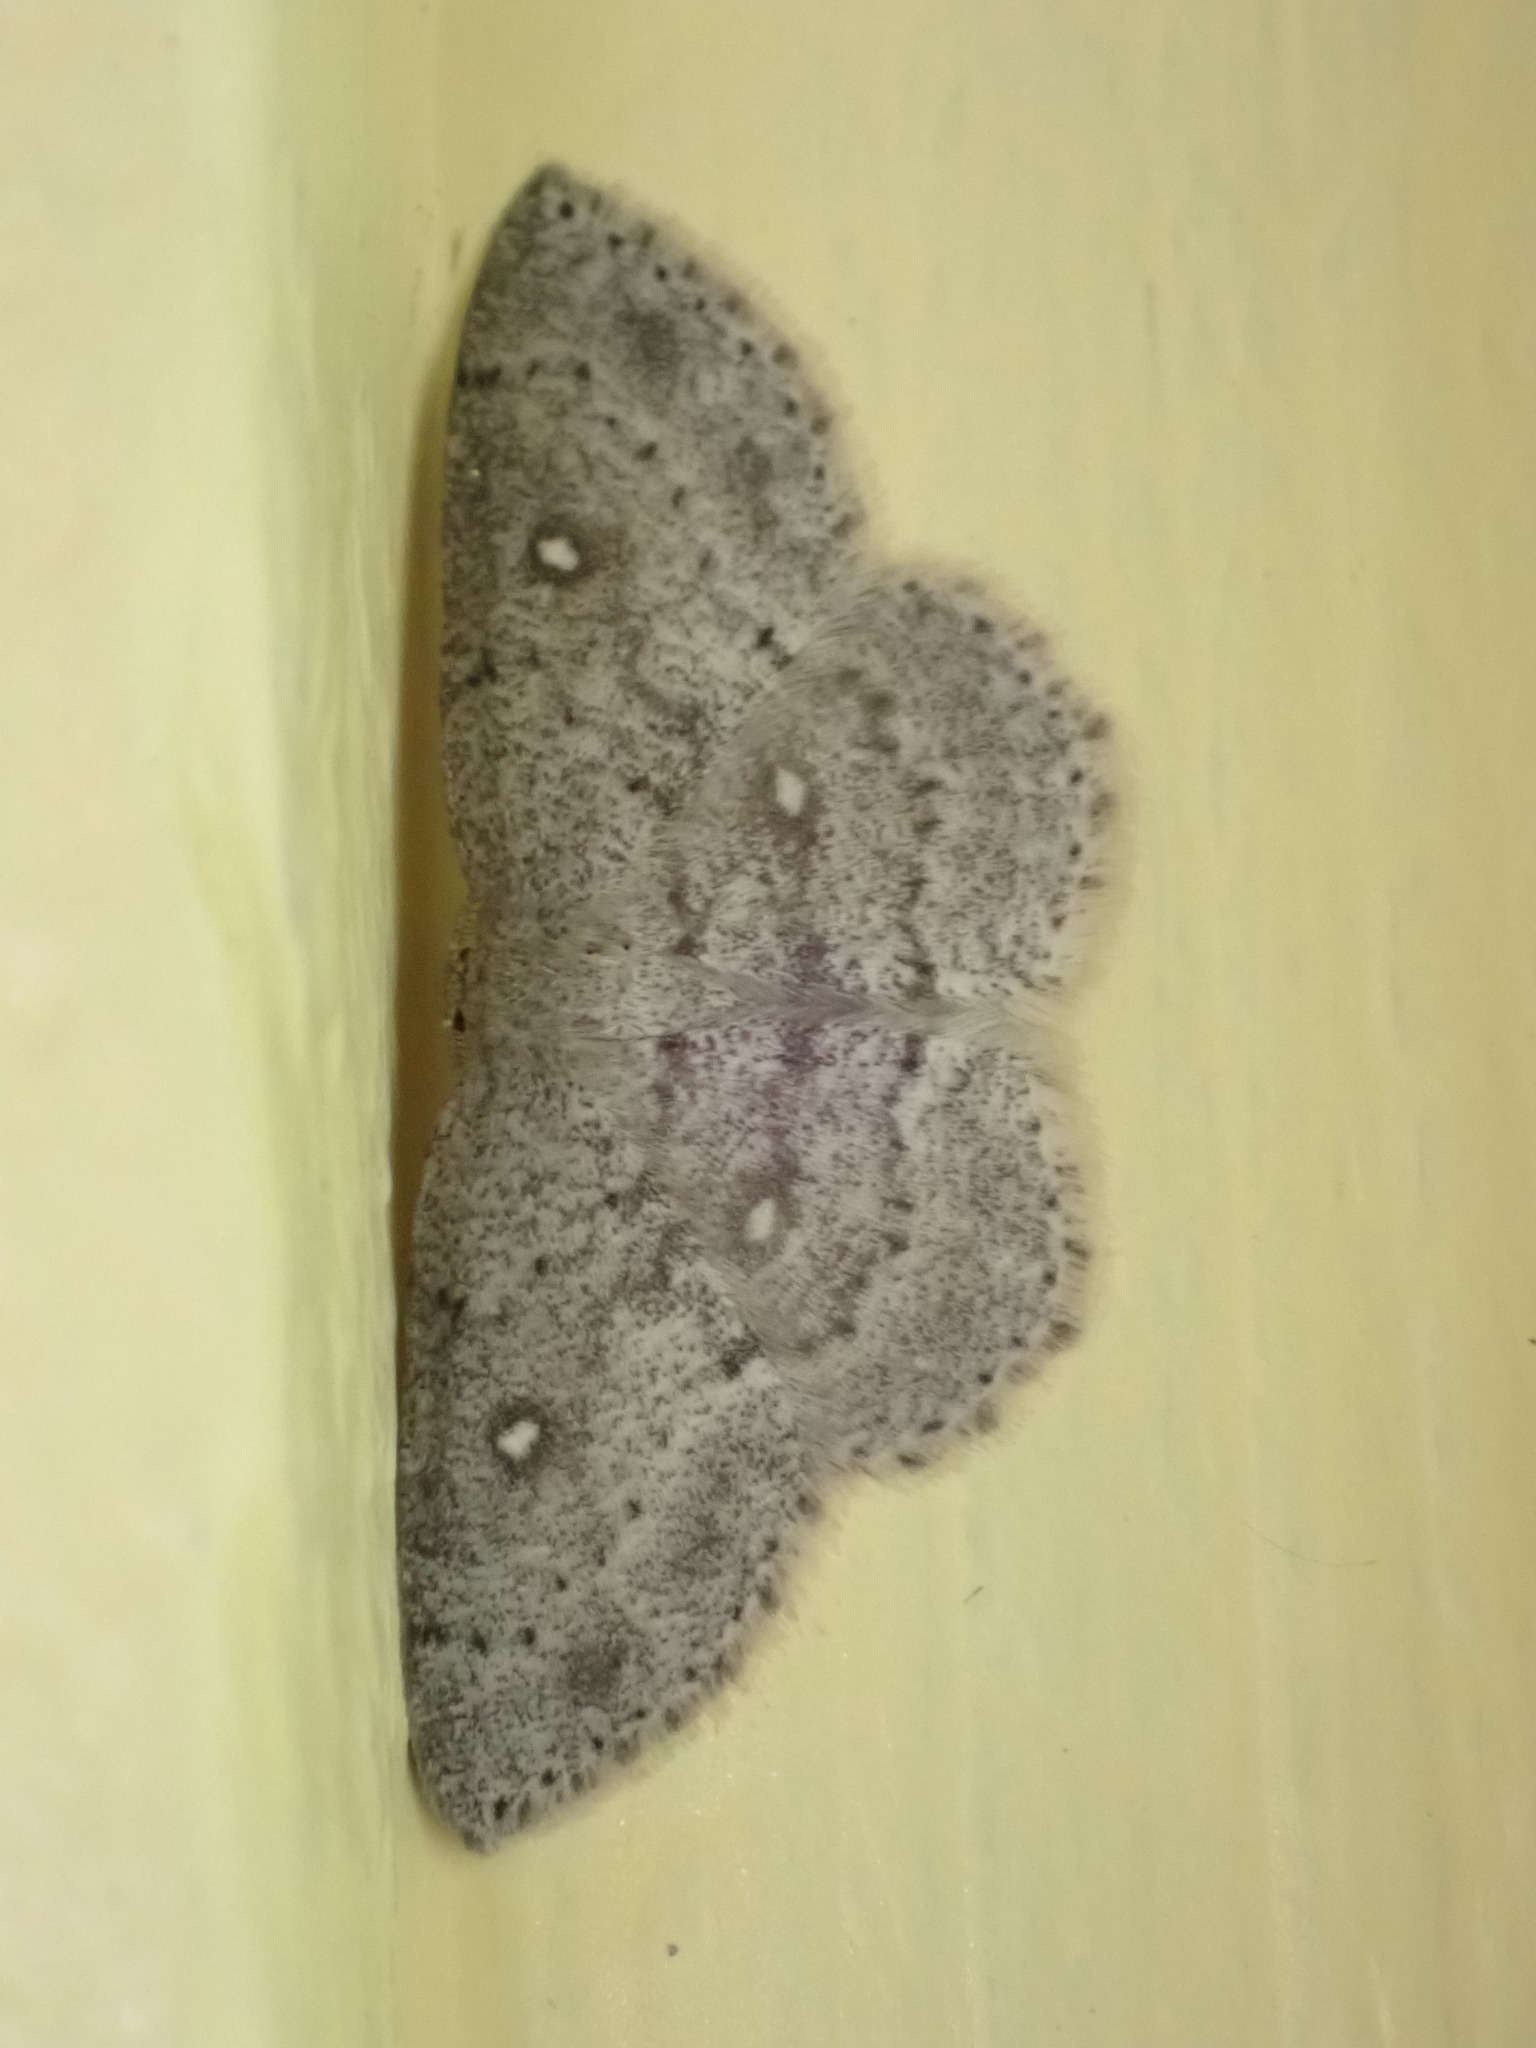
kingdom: Animalia
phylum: Arthropoda
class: Insecta
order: Lepidoptera
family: Geometridae
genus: Cyclophora
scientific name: Cyclophora pendulinaria
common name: Sweet fern geometer
